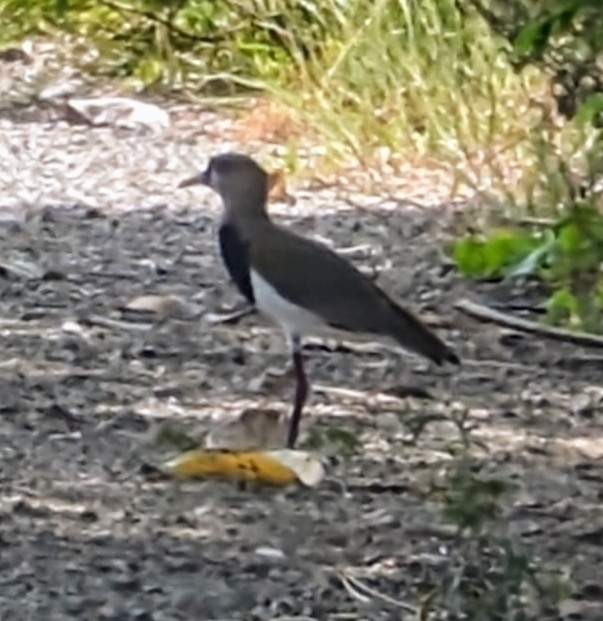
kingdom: Animalia
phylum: Chordata
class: Aves
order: Charadriiformes
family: Charadriidae
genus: Vanellus
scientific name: Vanellus chilensis
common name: Southern lapwing
